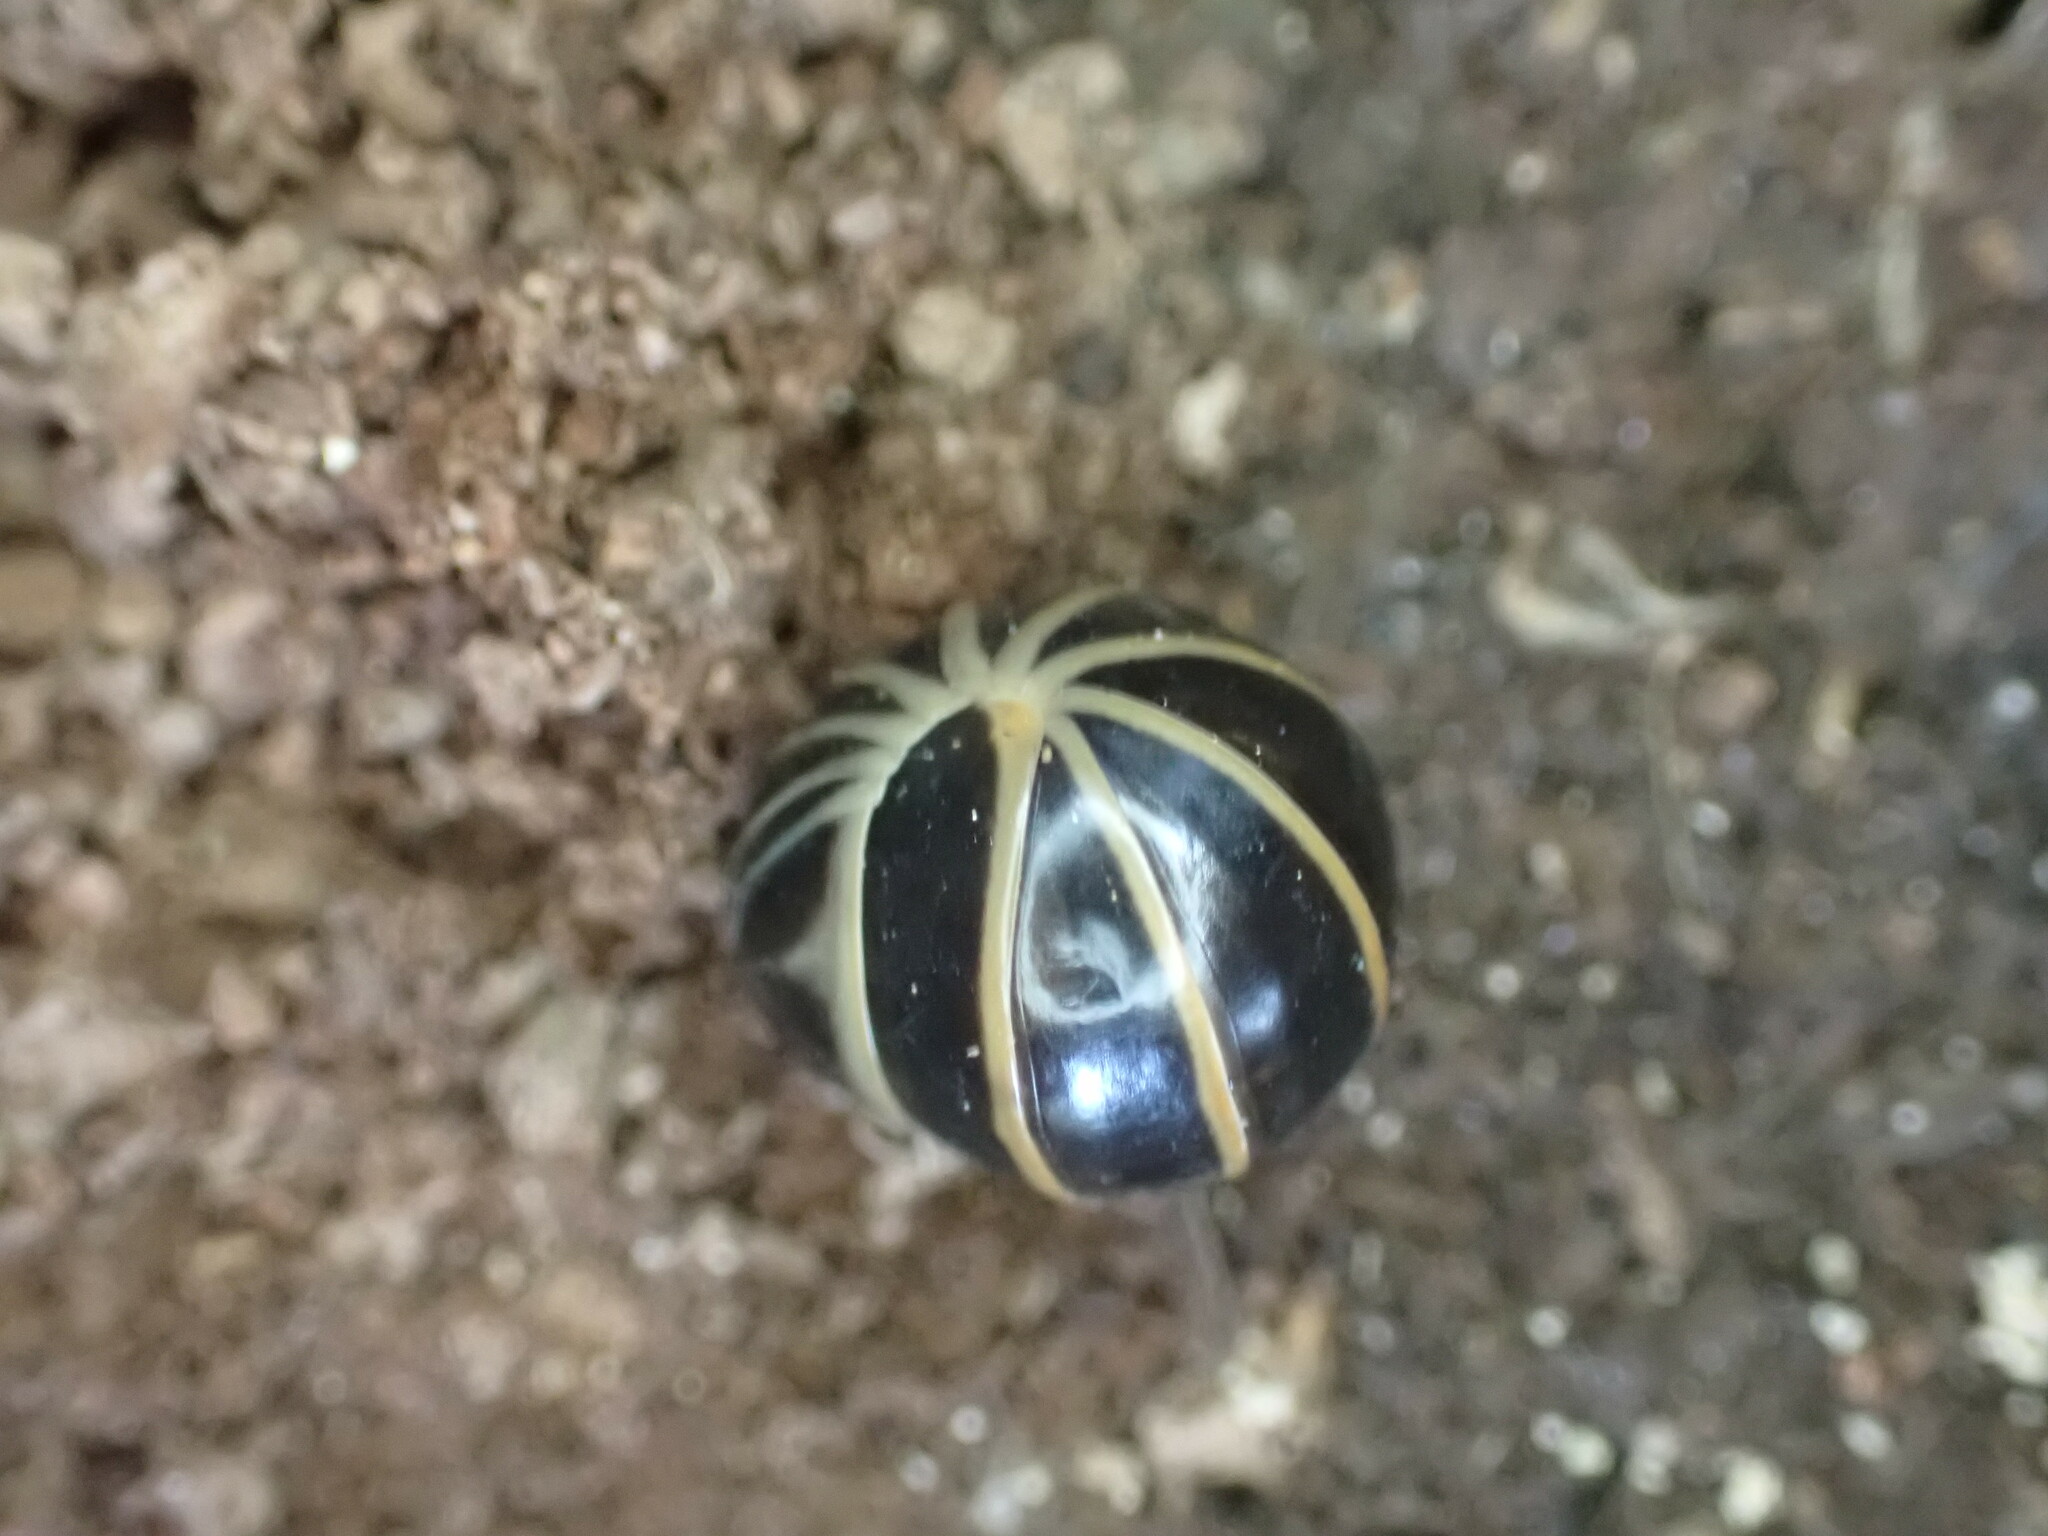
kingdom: Animalia
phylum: Arthropoda
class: Diplopoda
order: Glomerida
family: Glomeridae
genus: Glomeris
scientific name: Glomeris marginata
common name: Bordered pill millipede
